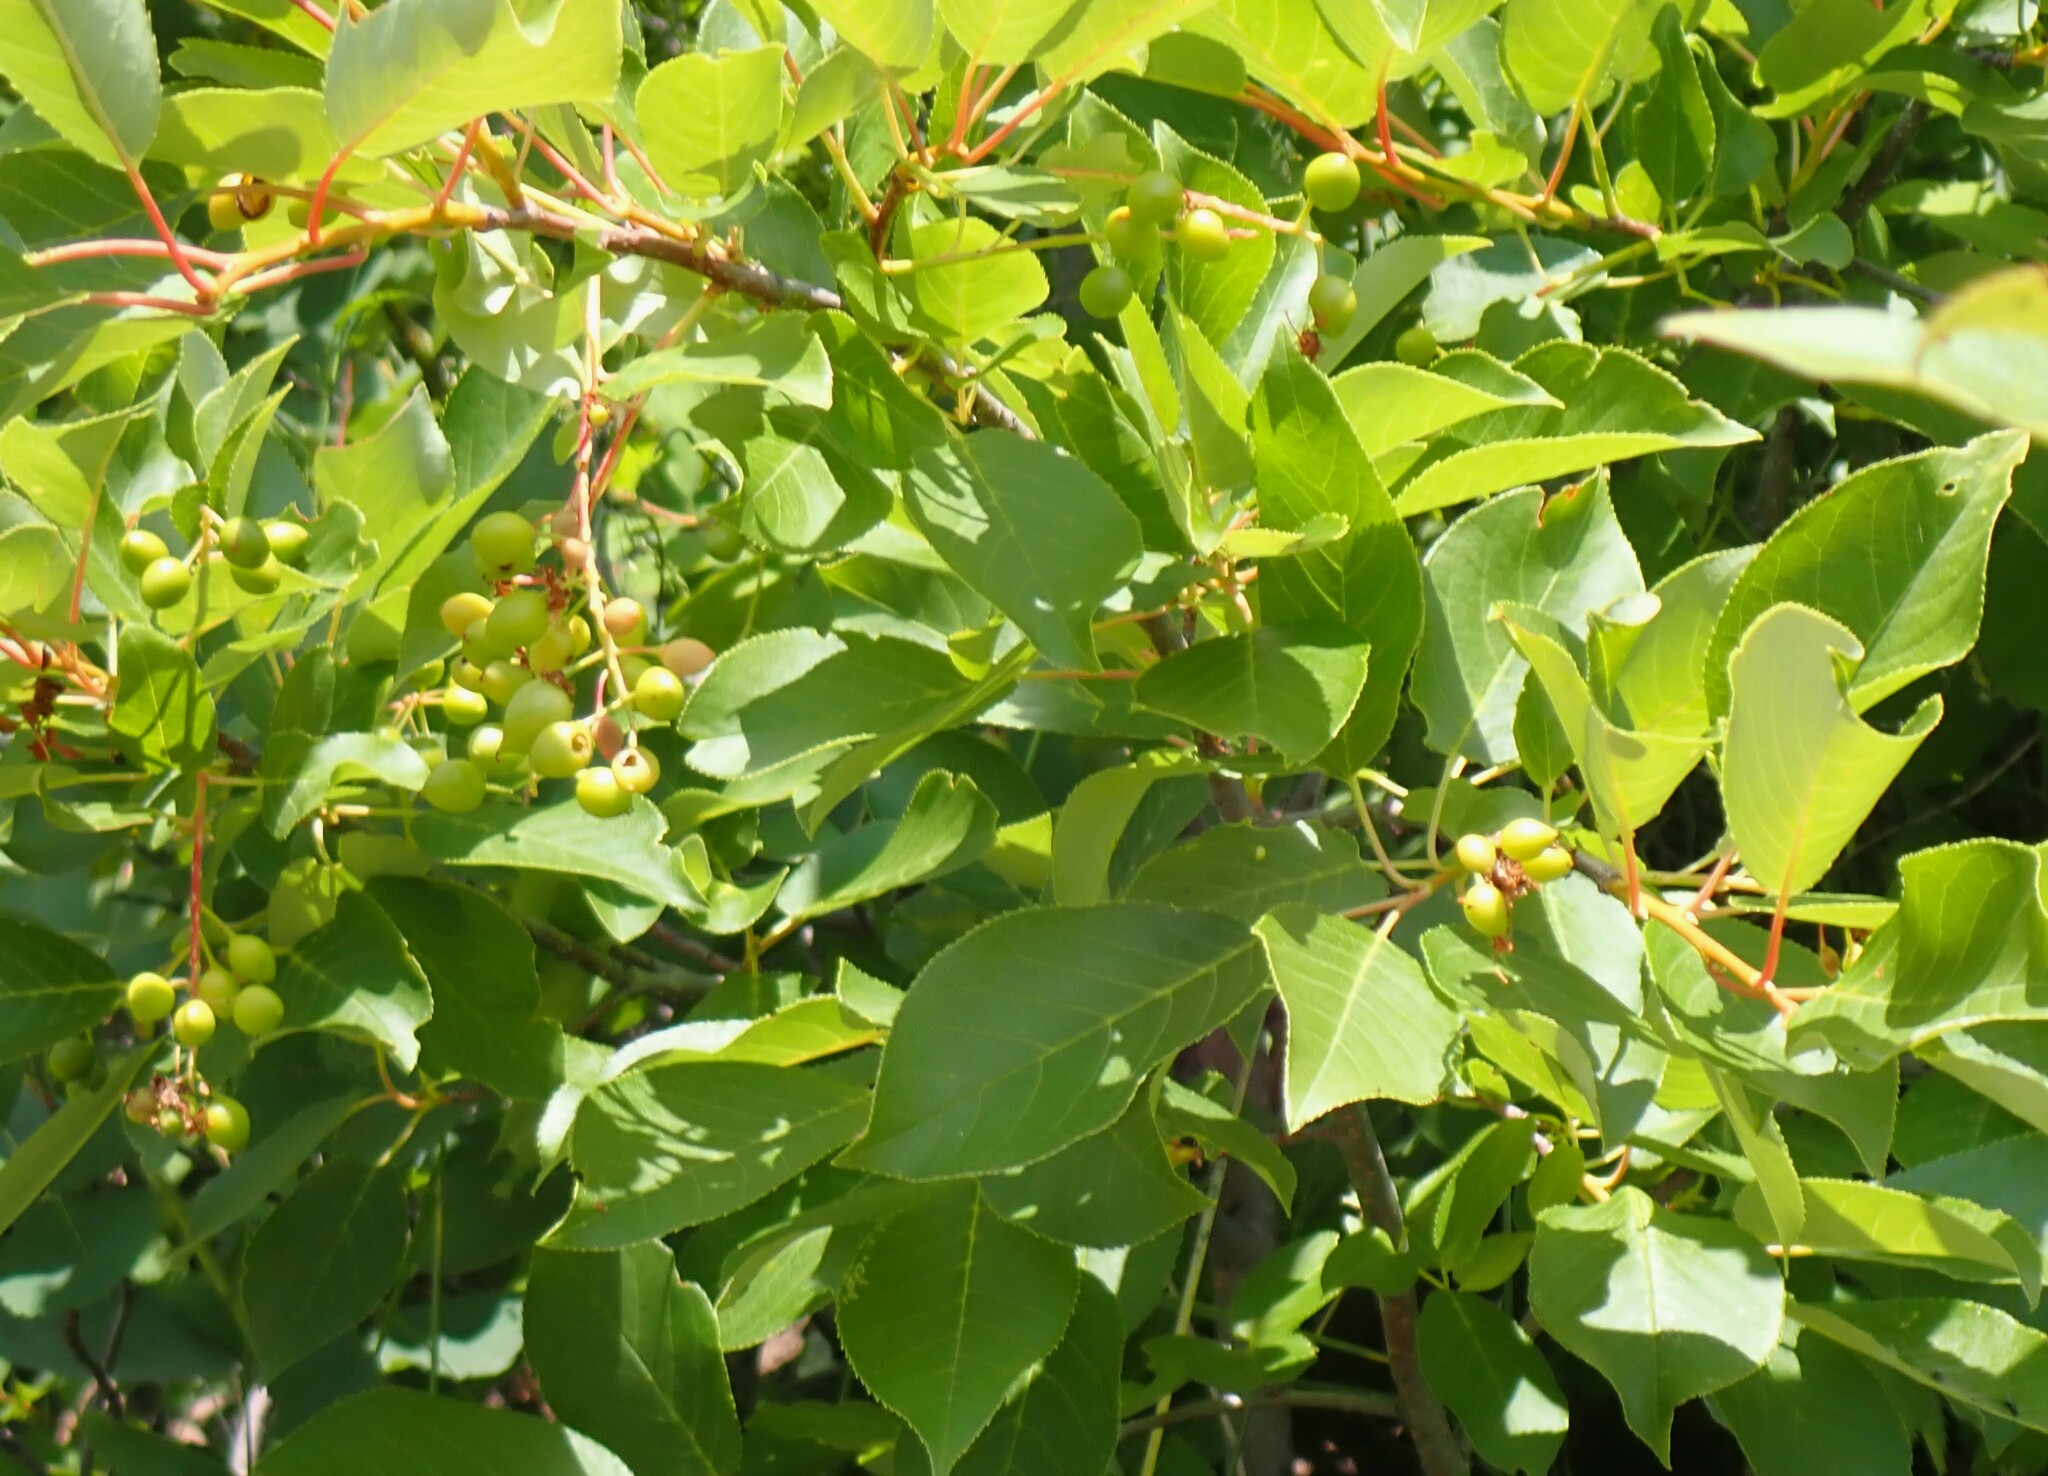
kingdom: Plantae
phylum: Tracheophyta
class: Magnoliopsida
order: Rosales
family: Rosaceae
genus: Prunus
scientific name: Prunus virginiana
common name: Chokecherry
